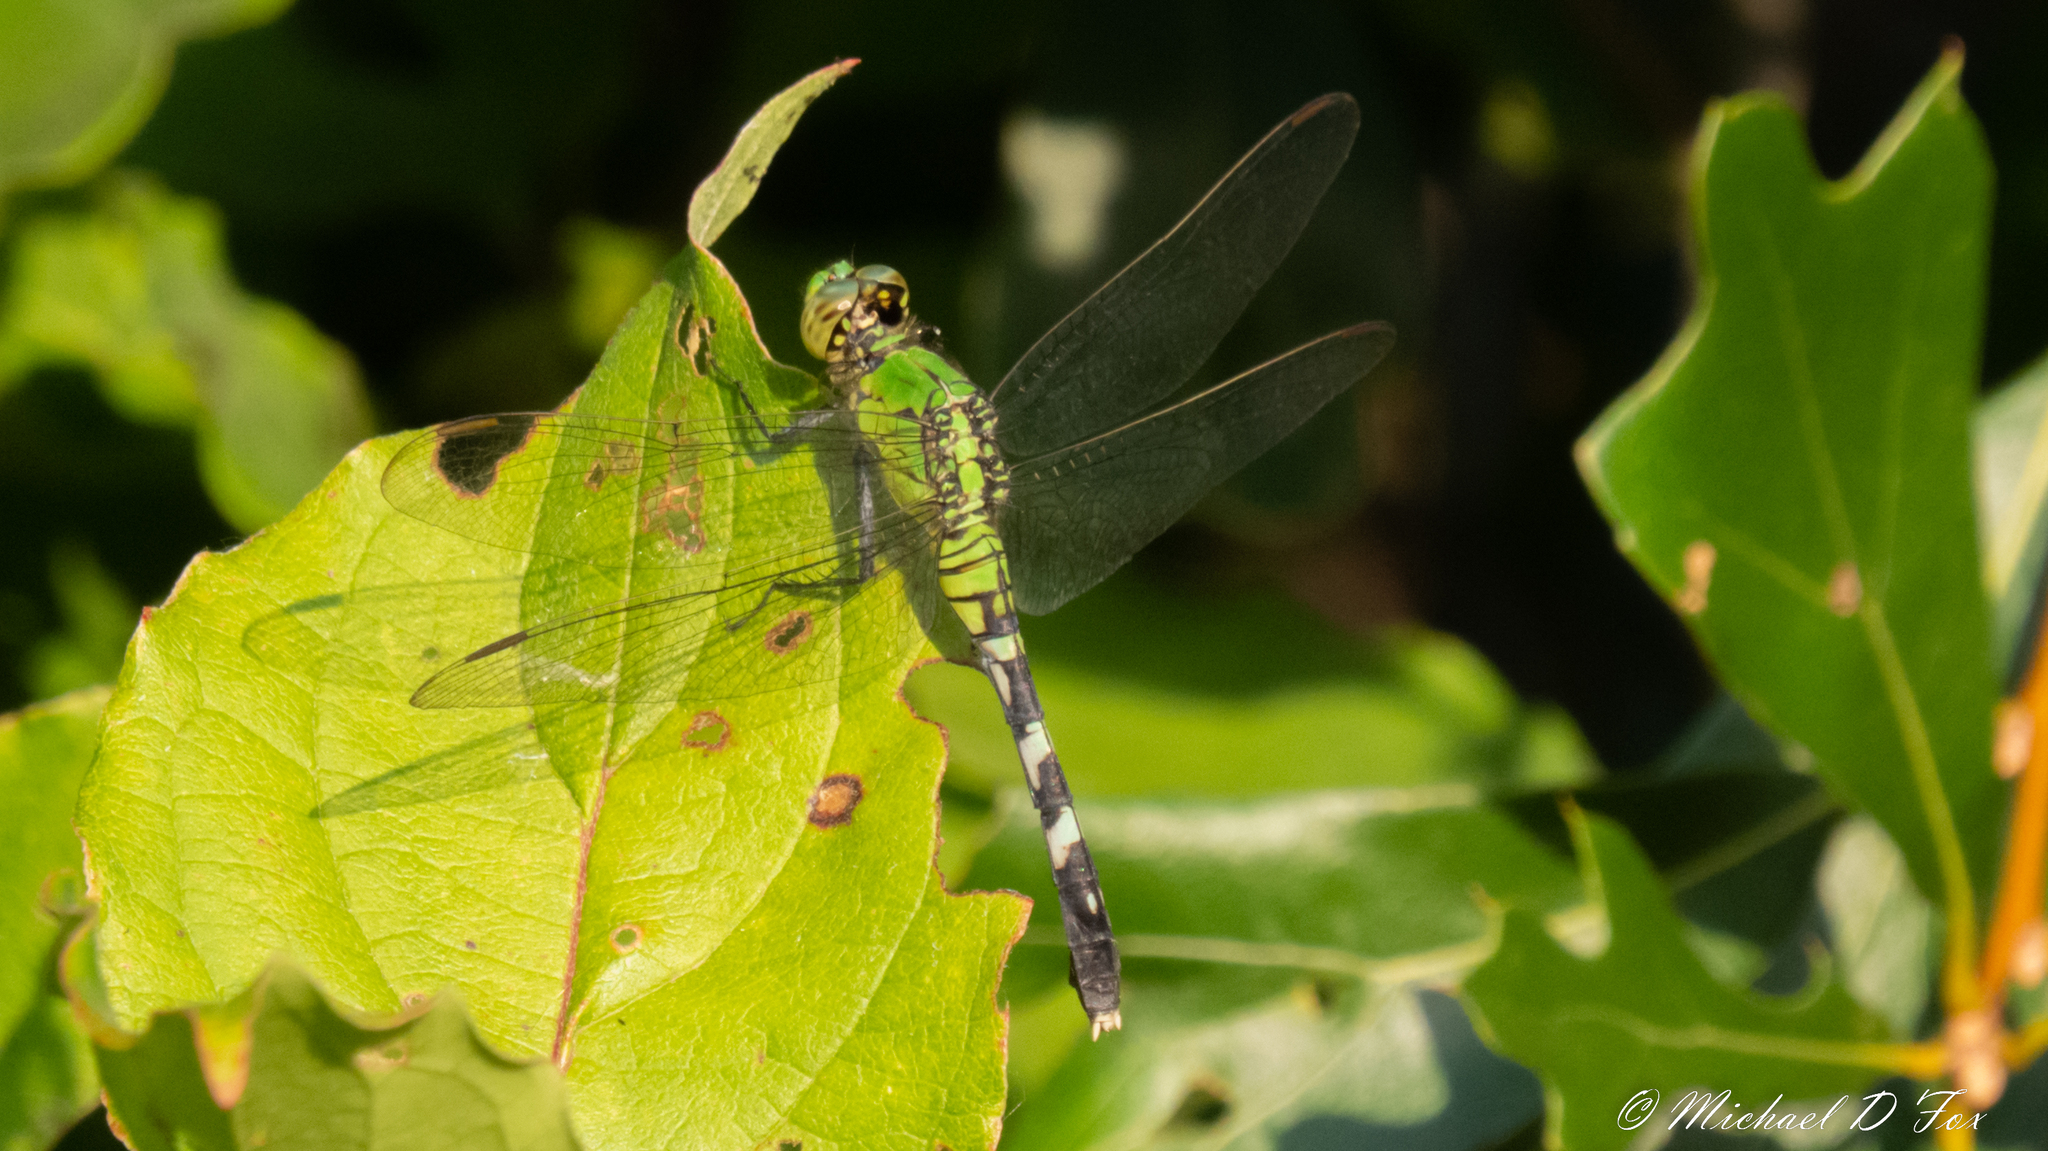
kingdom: Animalia
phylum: Arthropoda
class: Insecta
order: Odonata
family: Libellulidae
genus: Erythemis
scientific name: Erythemis simplicicollis
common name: Eastern pondhawk
